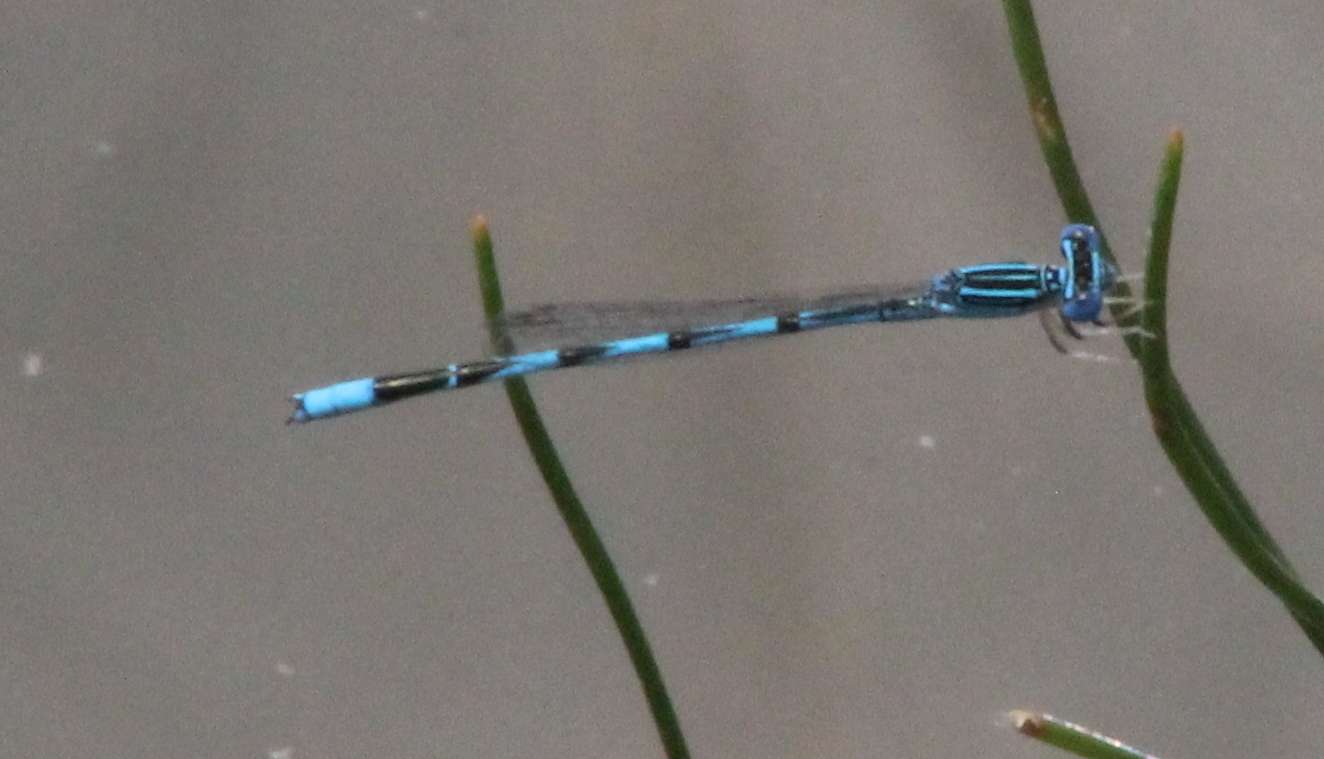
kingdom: Animalia
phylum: Arthropoda
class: Insecta
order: Odonata
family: Coenagrionidae
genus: Enallagma
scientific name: Enallagma basidens
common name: Double-striped bluet
